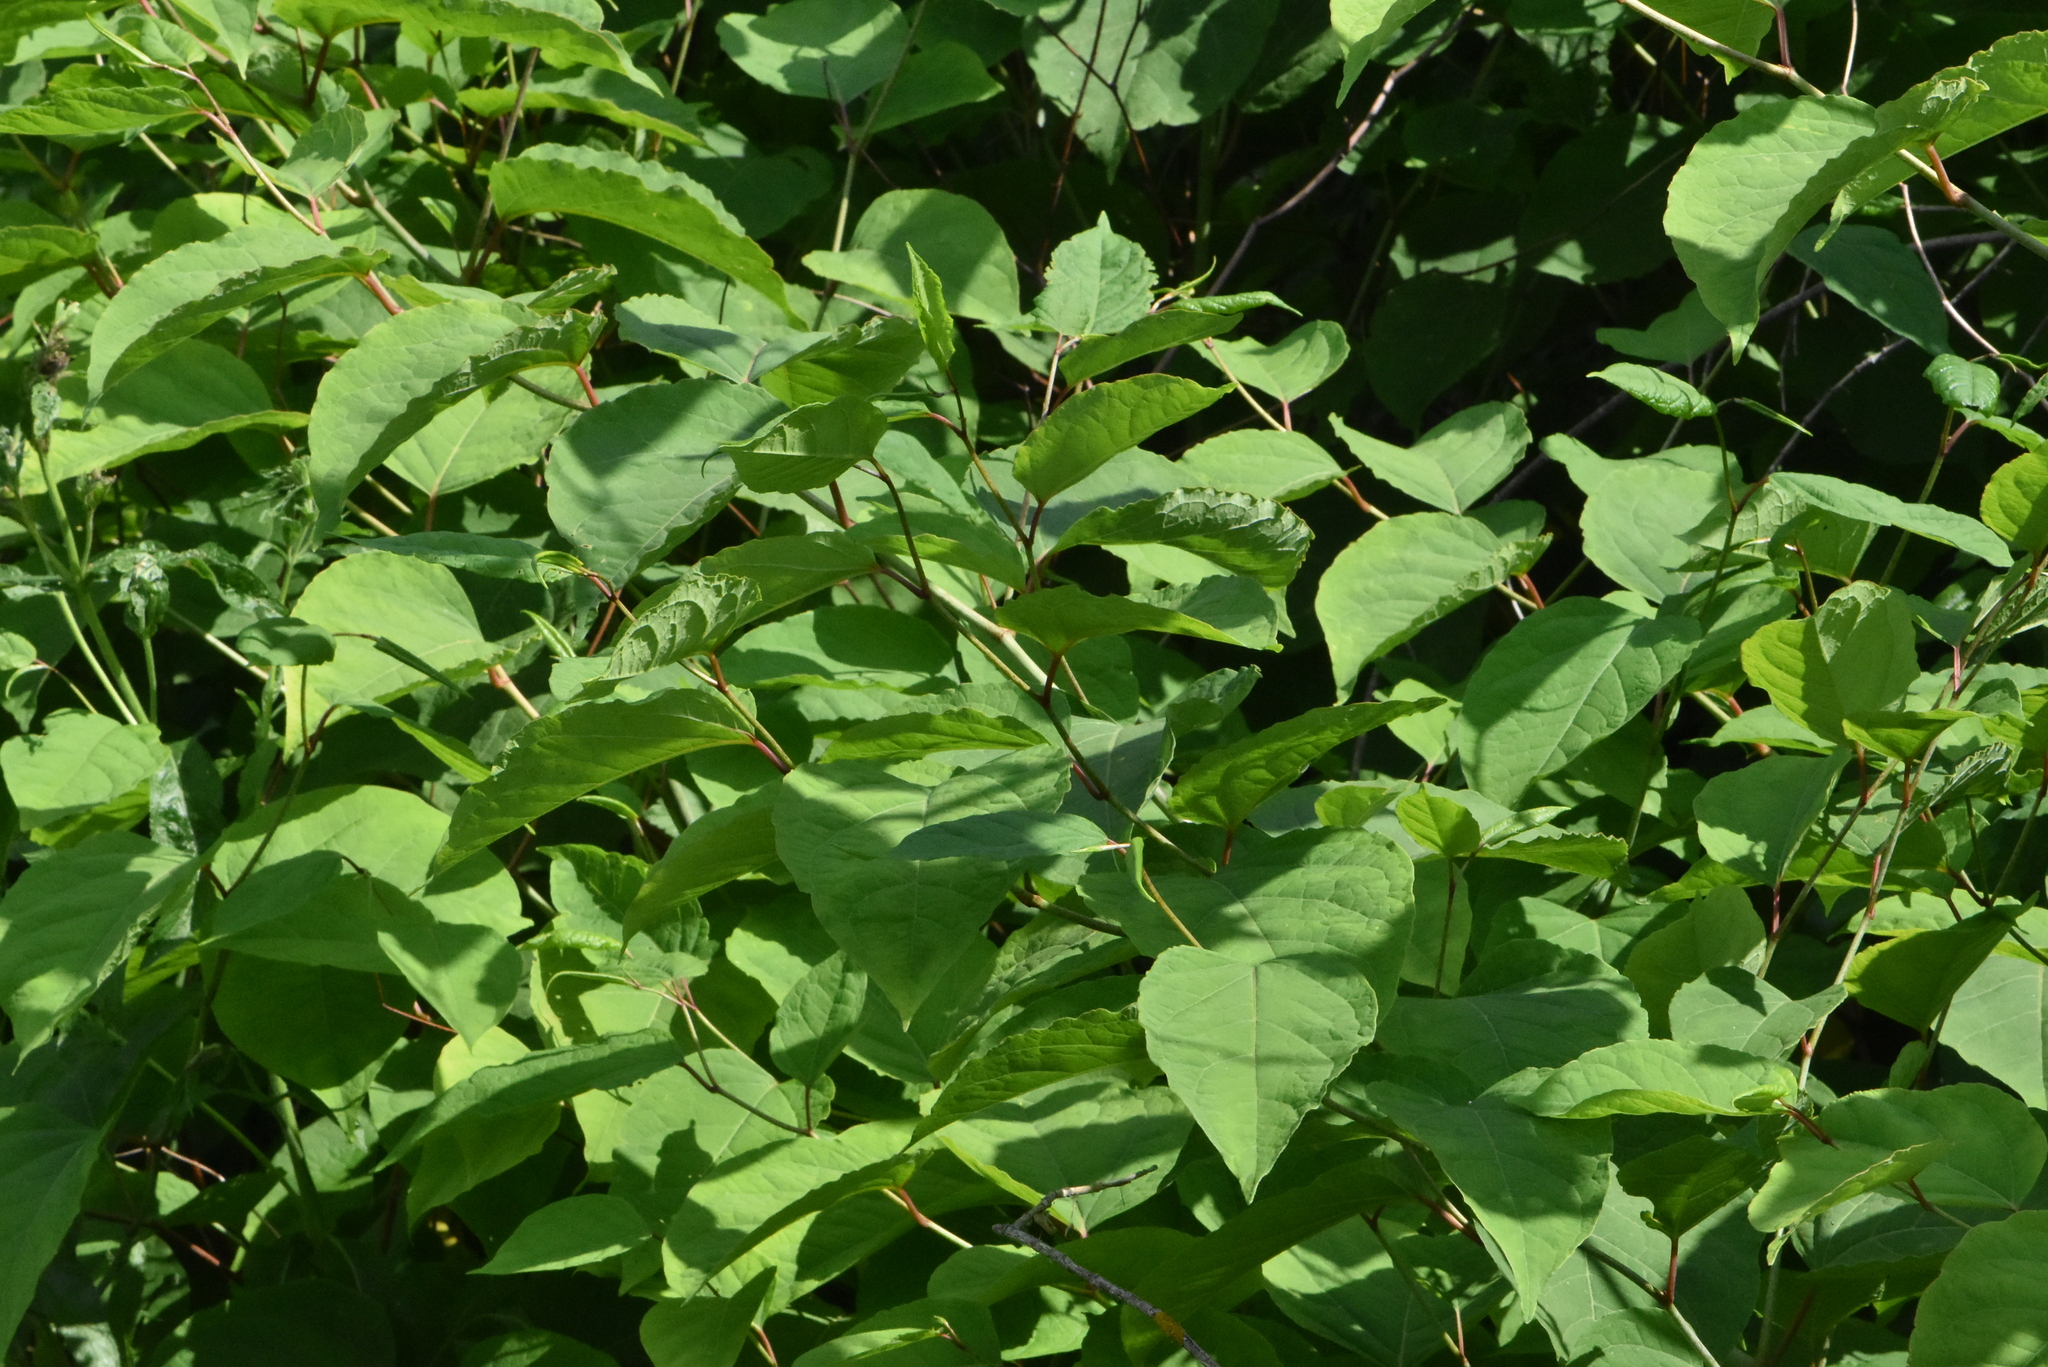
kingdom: Plantae
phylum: Tracheophyta
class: Magnoliopsida
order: Caryophyllales
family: Polygonaceae
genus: Reynoutria
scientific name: Reynoutria japonica
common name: Japanese knotweed
